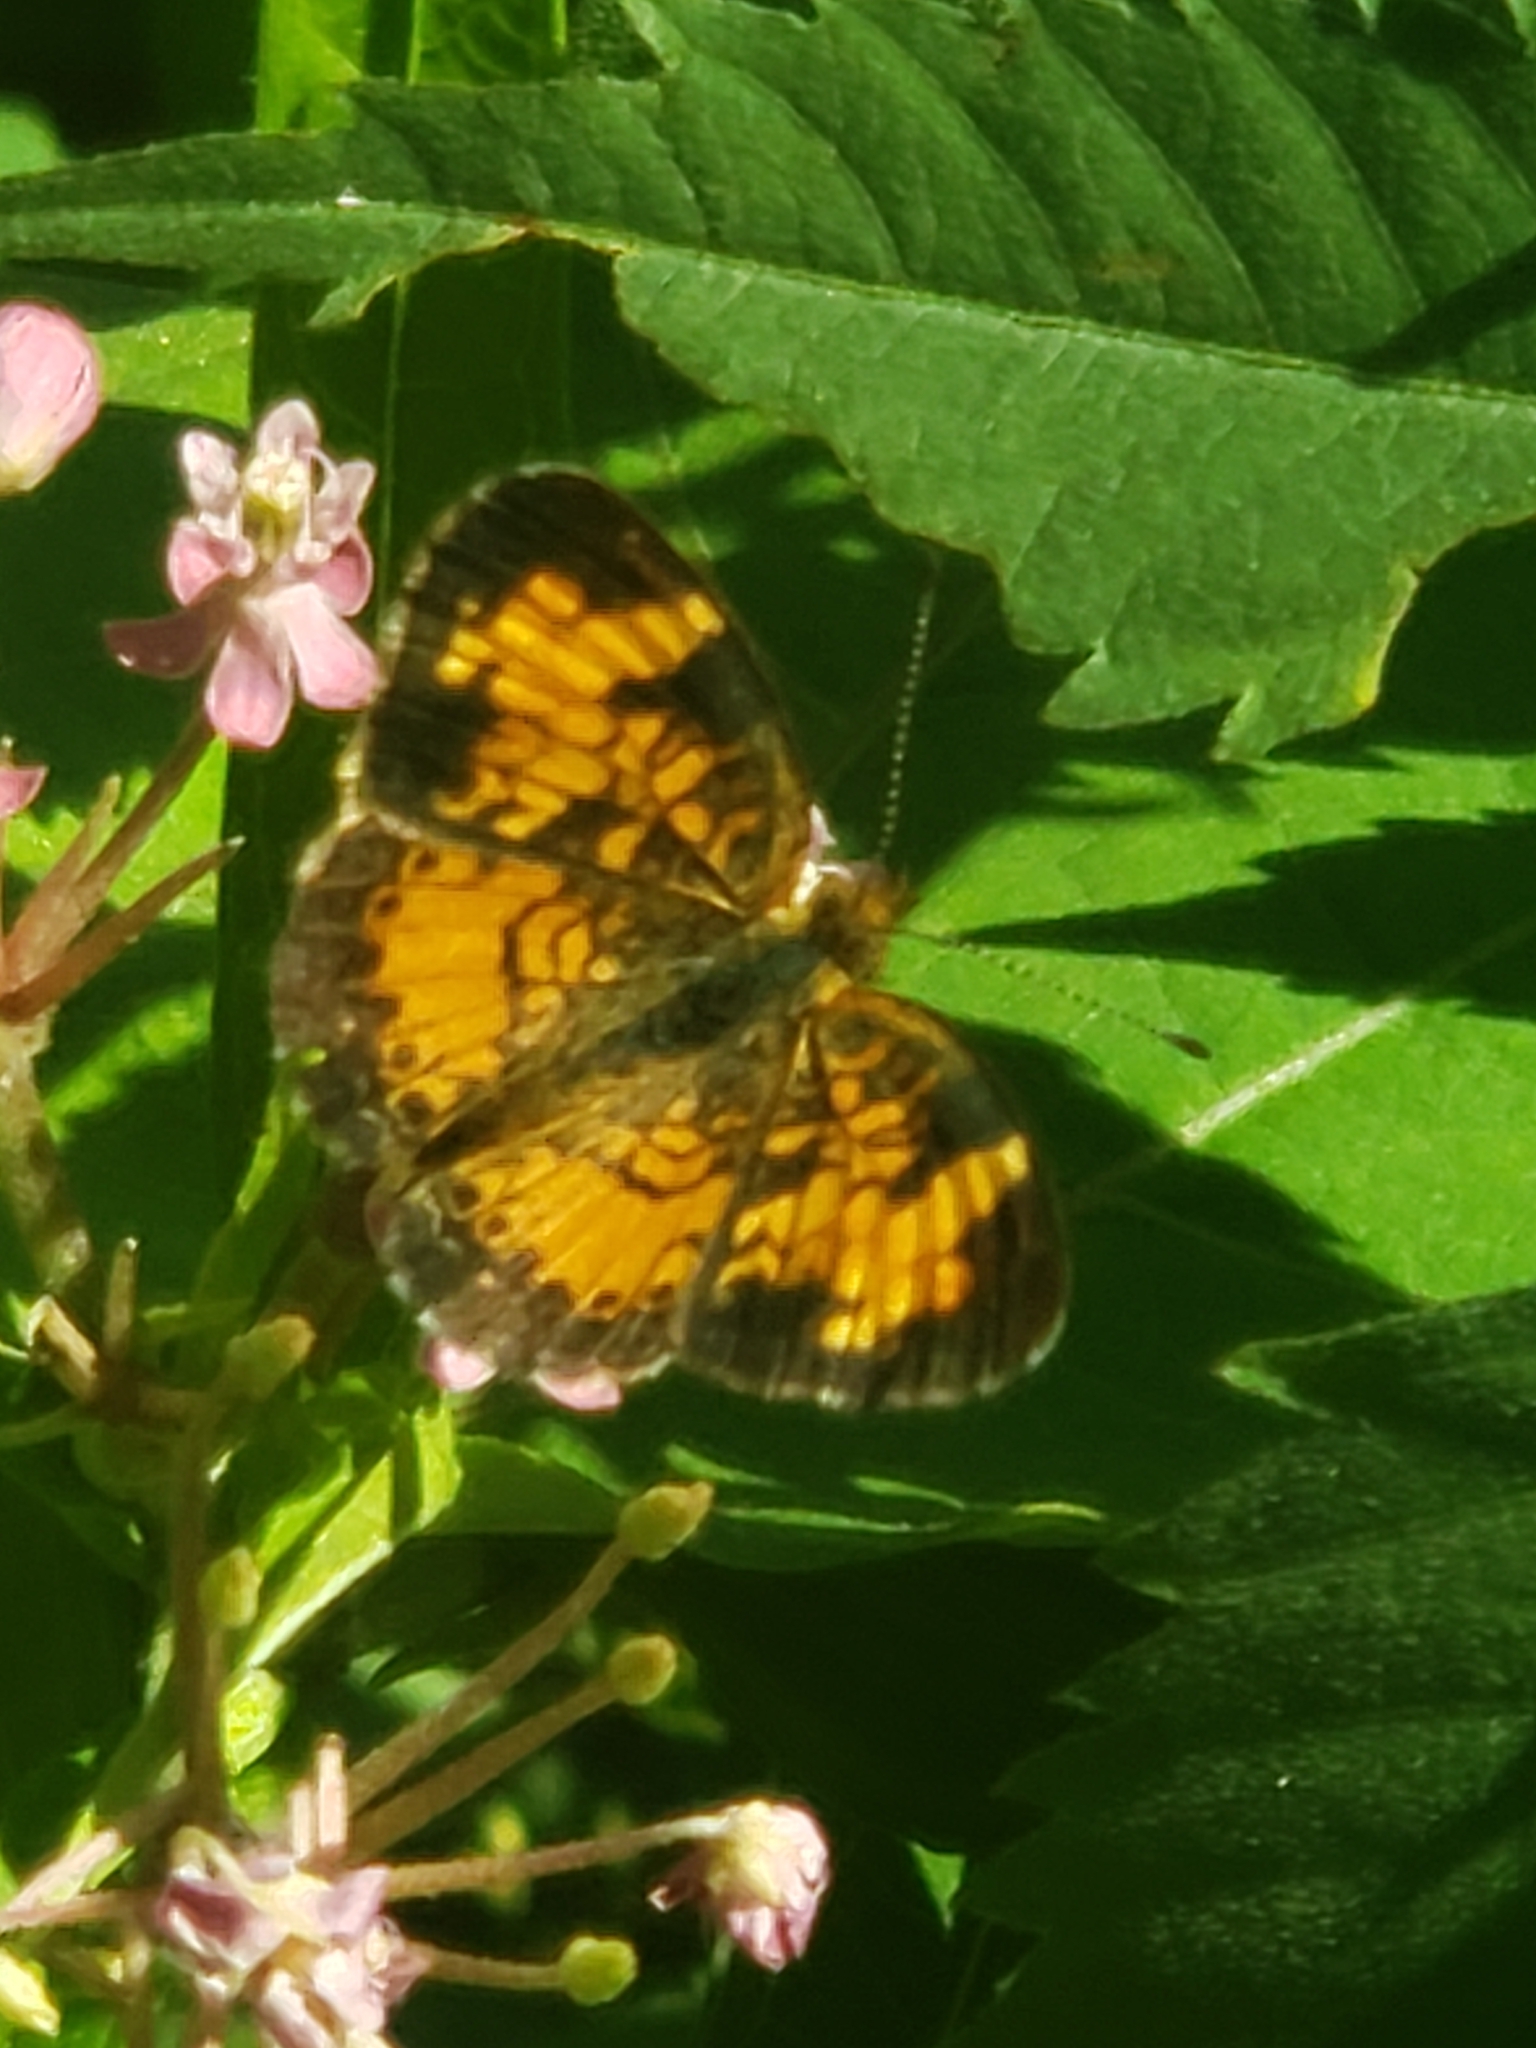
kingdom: Animalia
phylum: Arthropoda
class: Insecta
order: Lepidoptera
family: Nymphalidae
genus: Phyciodes
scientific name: Phyciodes tharos
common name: Pearl crescent
